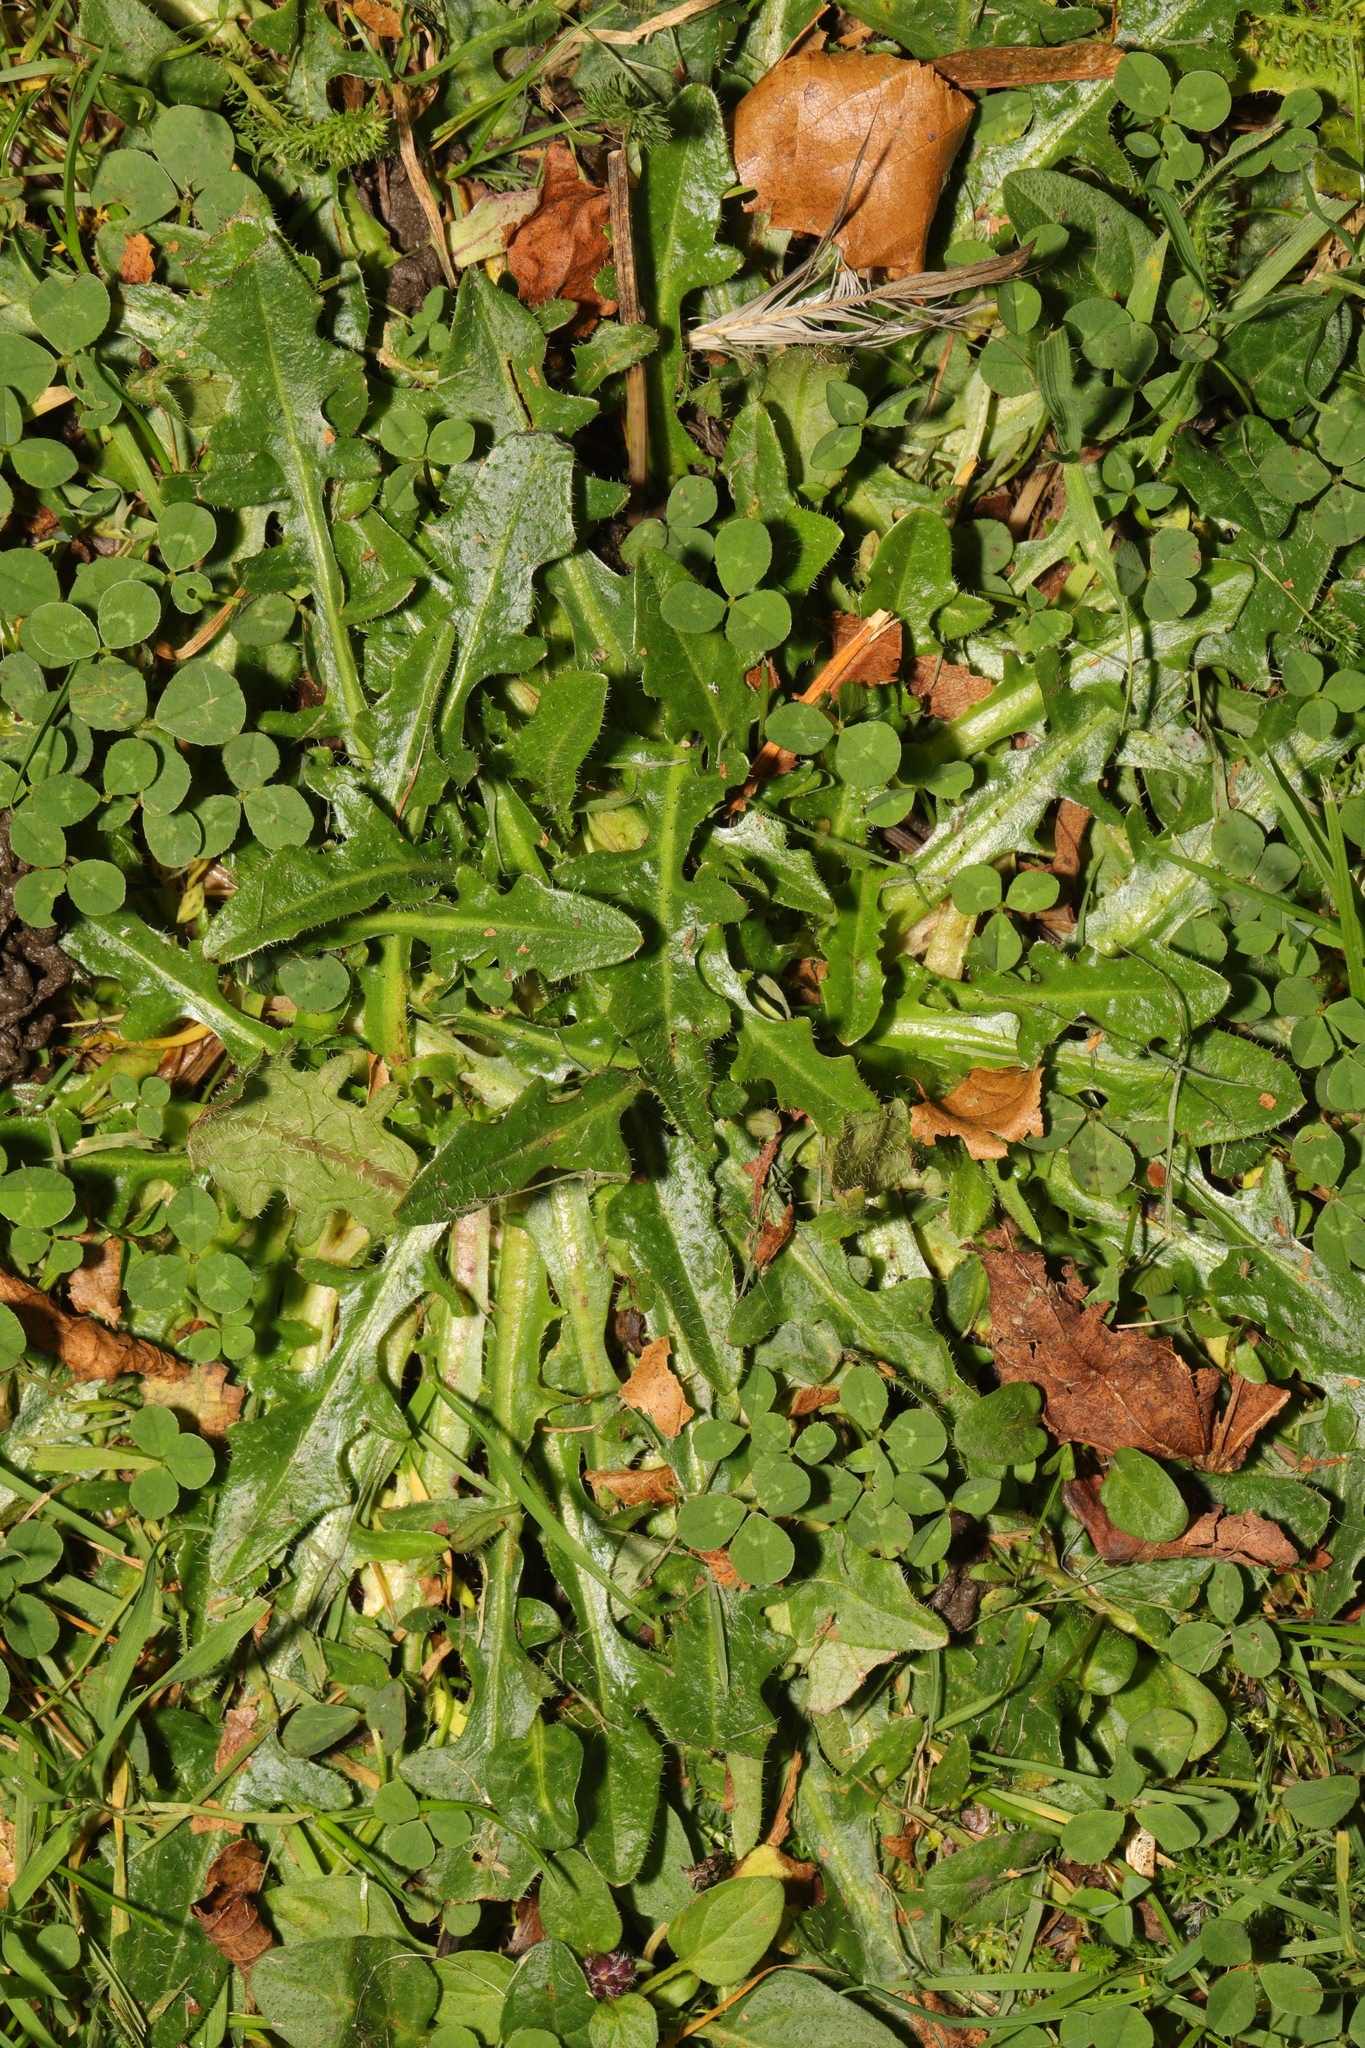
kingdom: Plantae
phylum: Tracheophyta
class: Magnoliopsida
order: Asterales
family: Asteraceae
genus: Hypochaeris
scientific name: Hypochaeris radicata
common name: Flatweed
